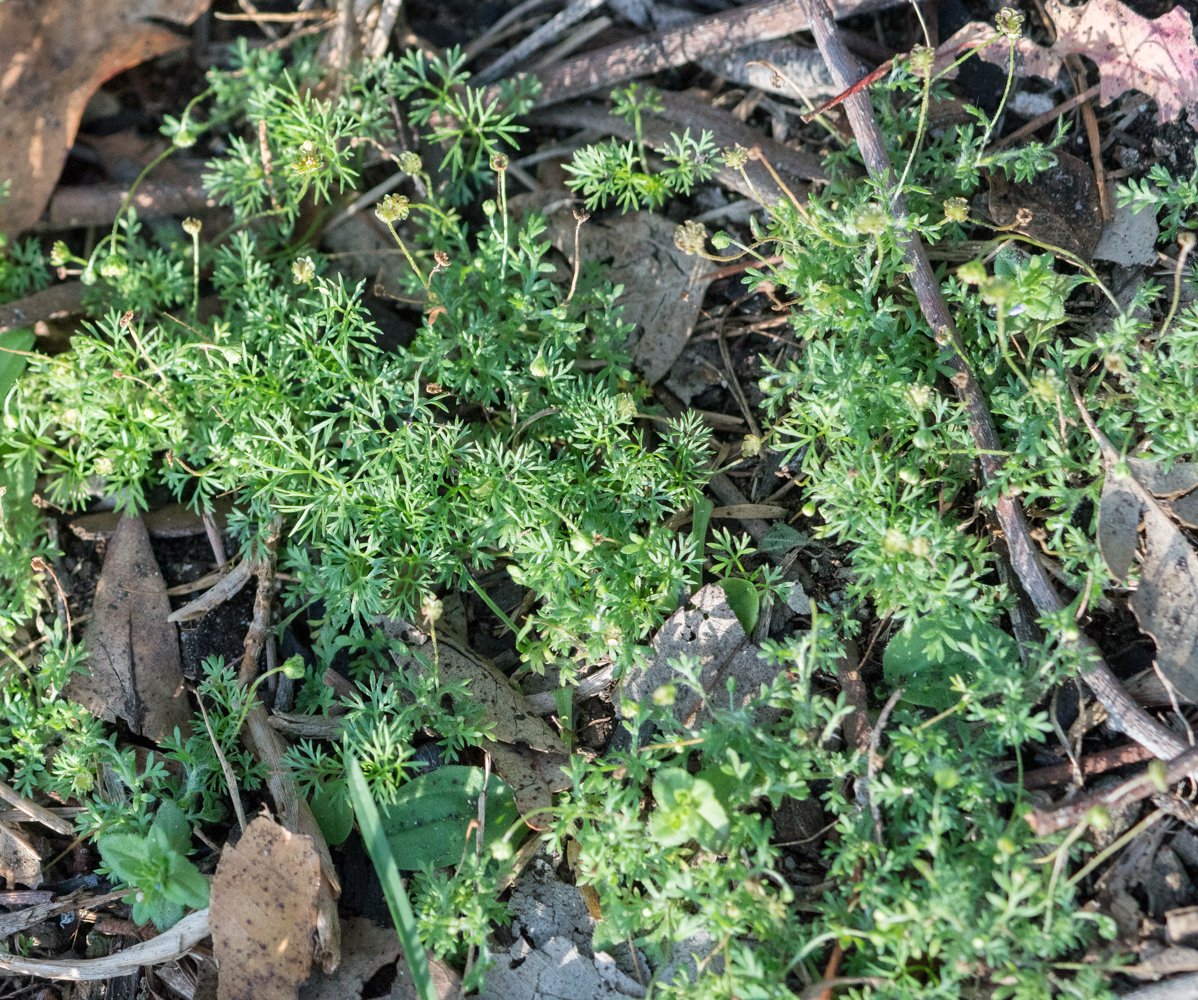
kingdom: Plantae
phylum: Tracheophyta
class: Magnoliopsida
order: Asterales
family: Asteraceae
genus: Cotula
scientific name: Cotula australis
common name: Australian waterbuttons
